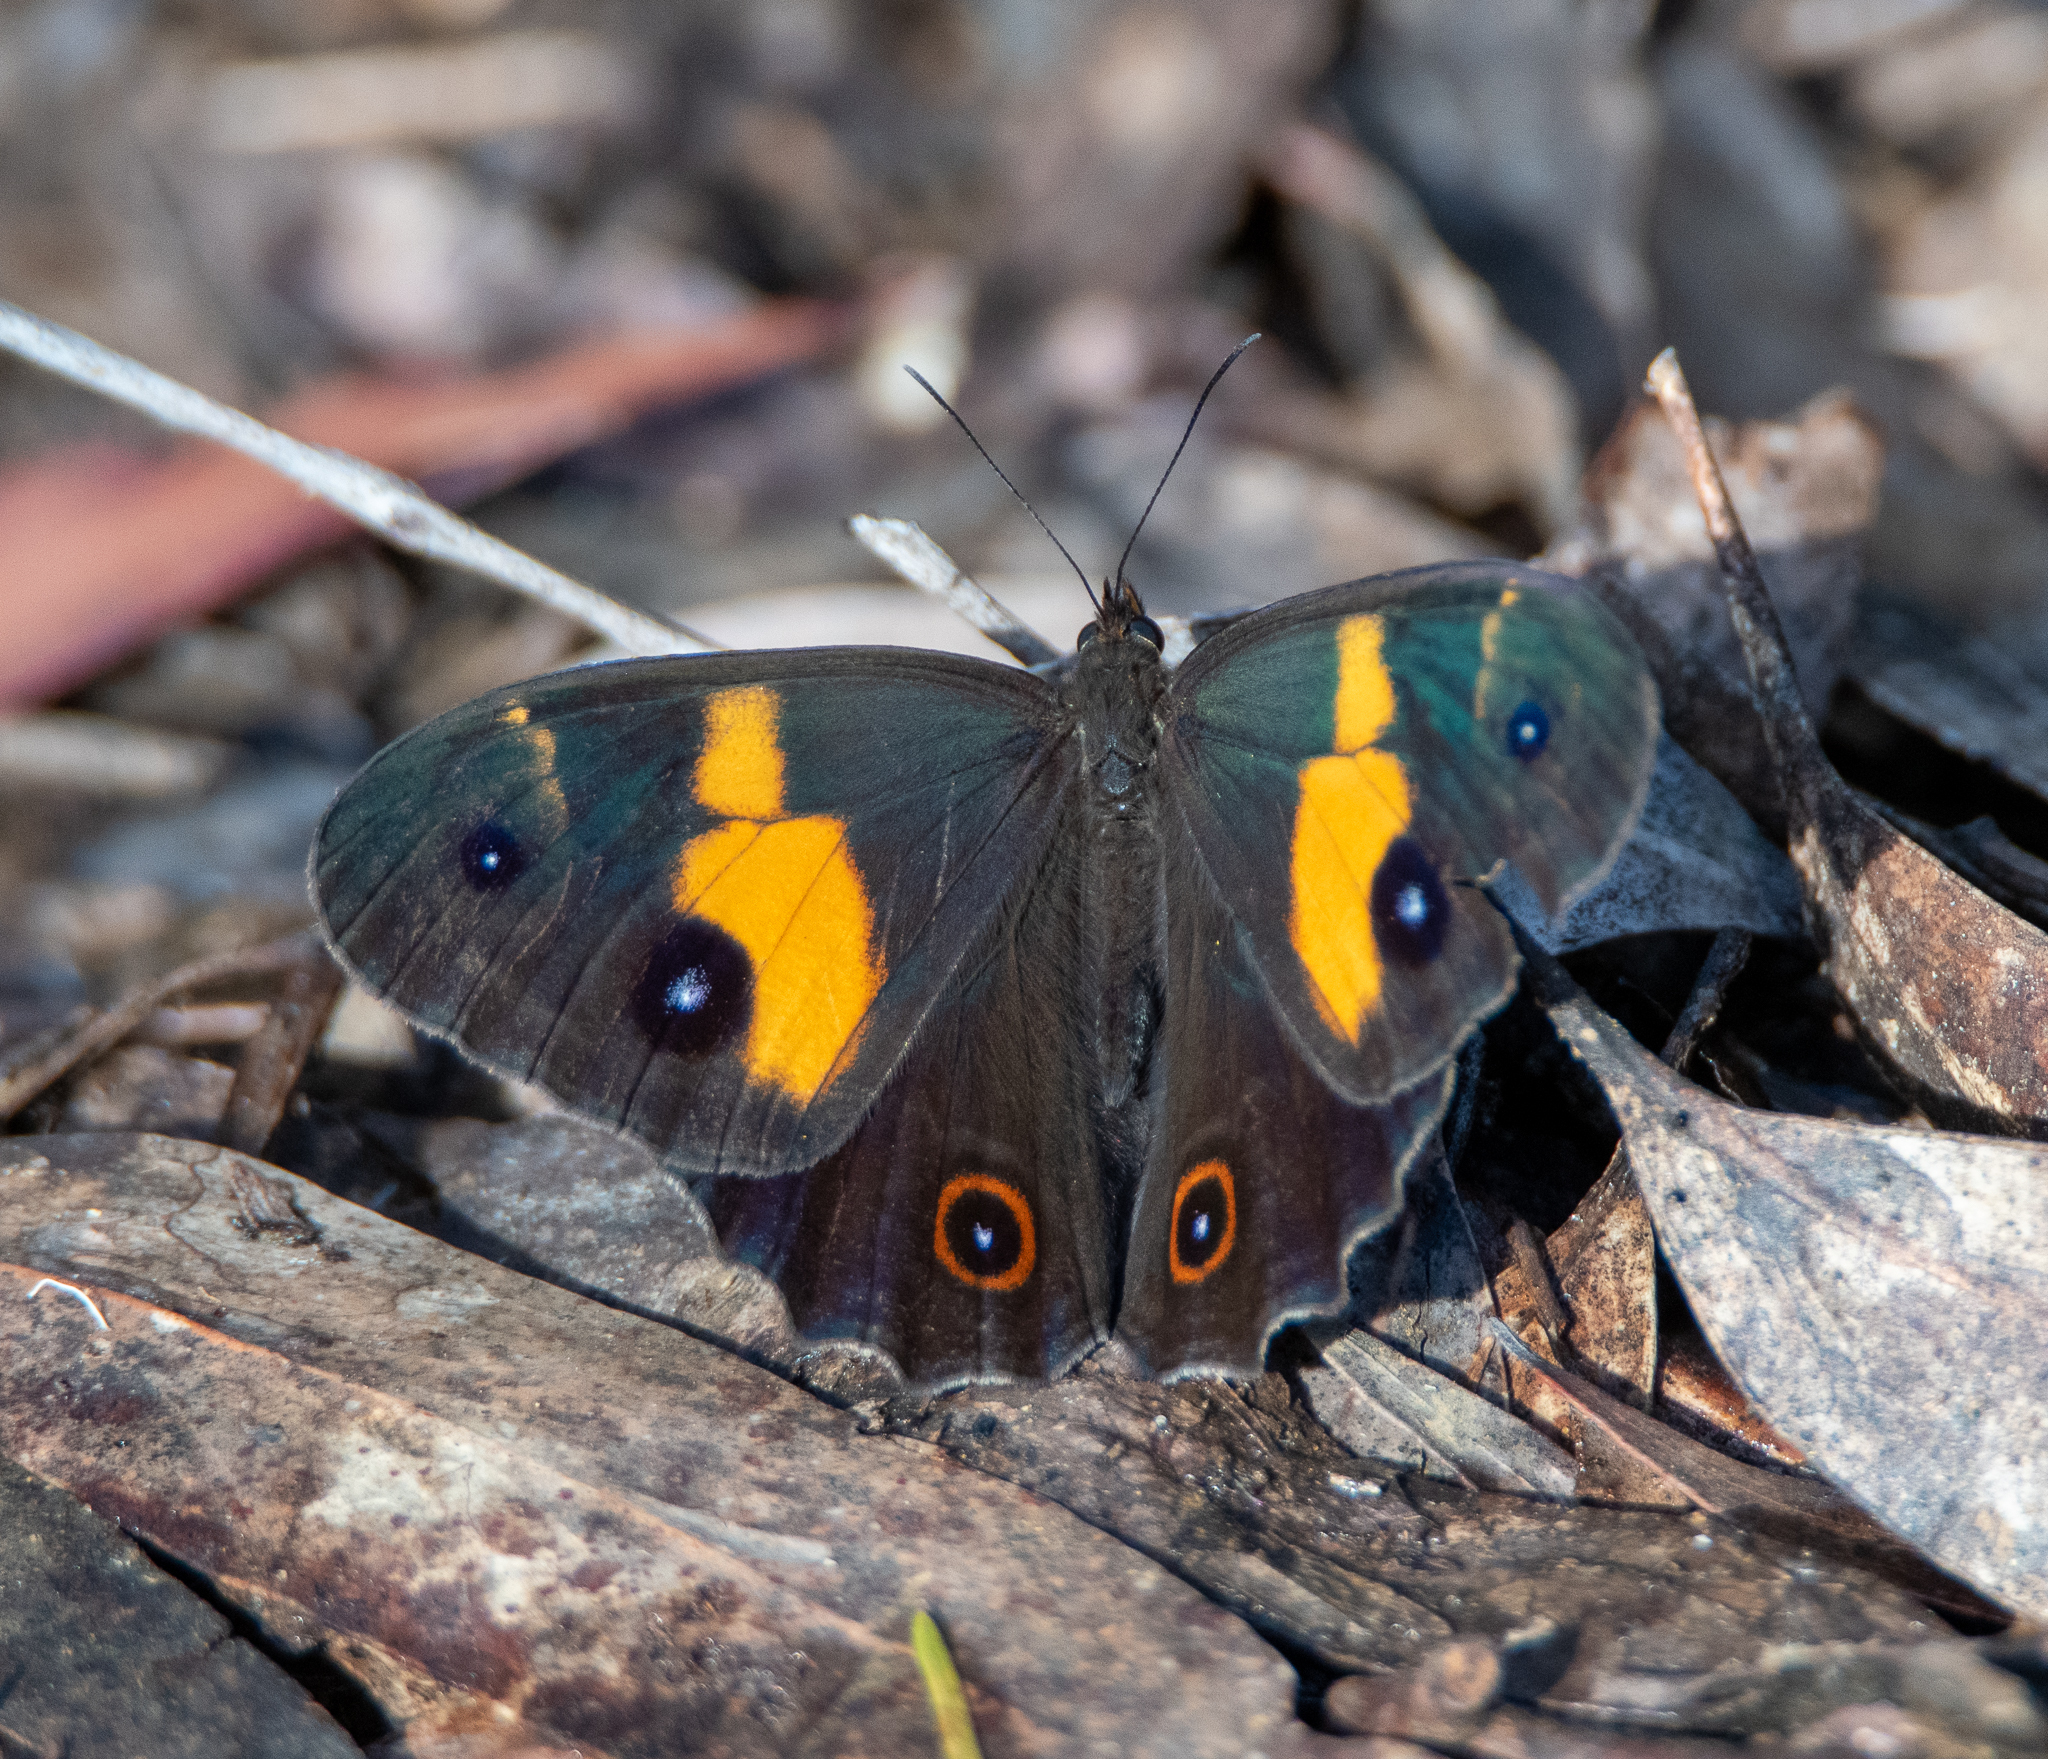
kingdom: Animalia
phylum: Arthropoda
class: Insecta
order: Lepidoptera
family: Nymphalidae
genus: Tisiphone
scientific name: Tisiphone abeona
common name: Swordgrass brown
